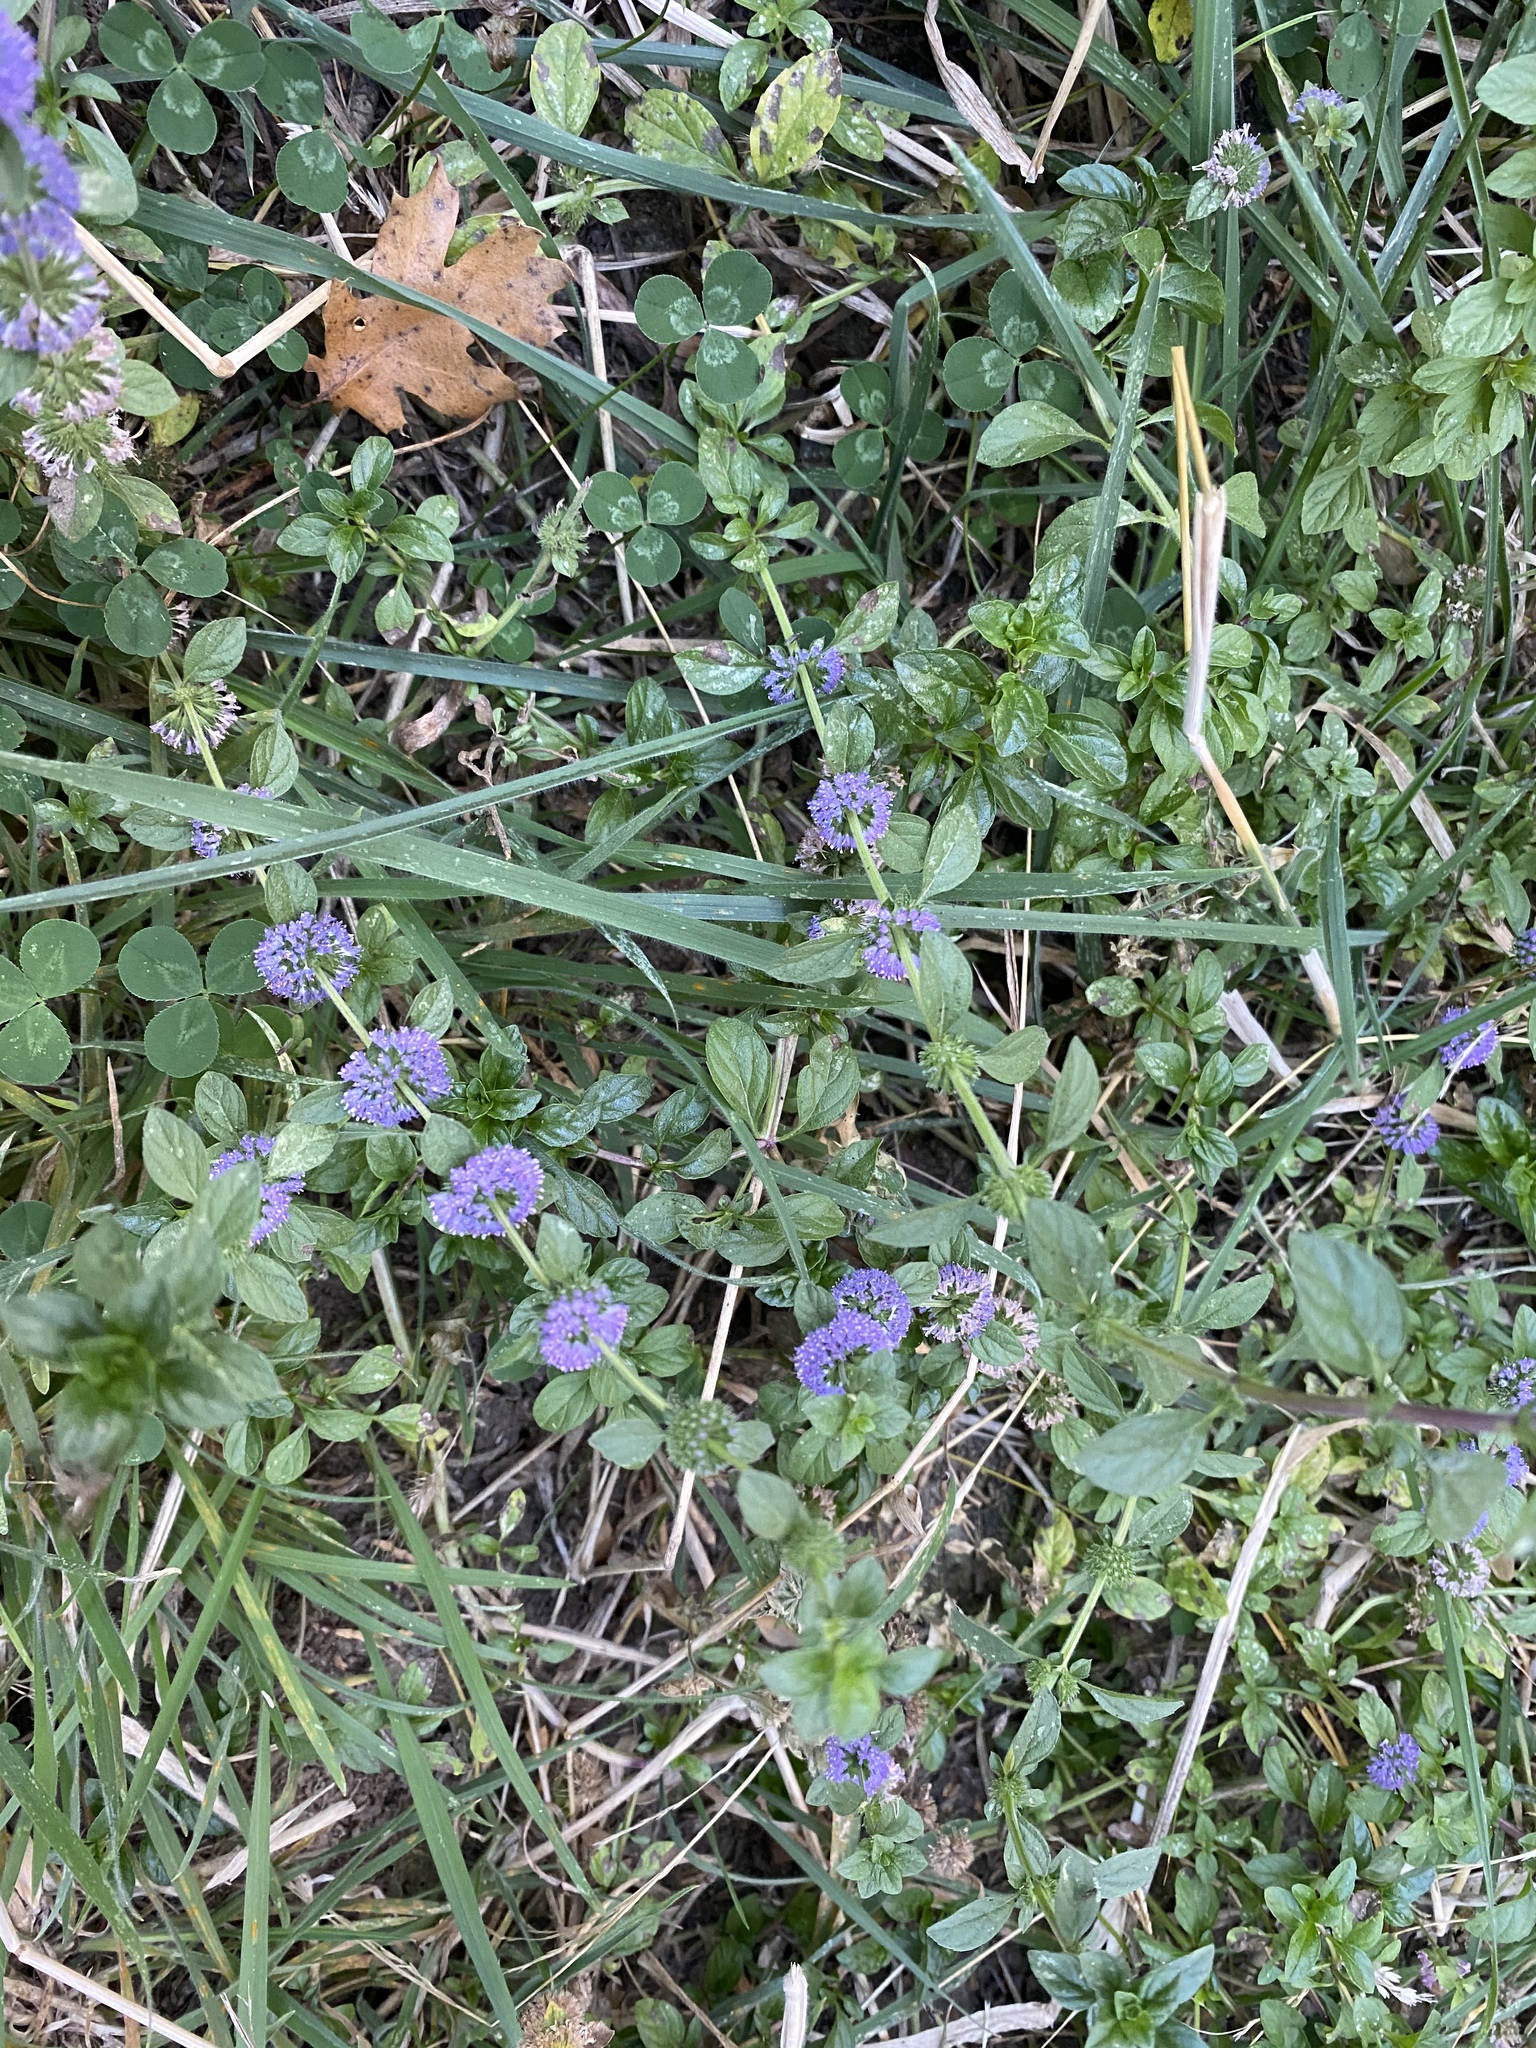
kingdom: Plantae
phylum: Tracheophyta
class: Magnoliopsida
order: Lamiales
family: Lamiaceae
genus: Mentha
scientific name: Mentha pulegium
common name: Pennyroyal
